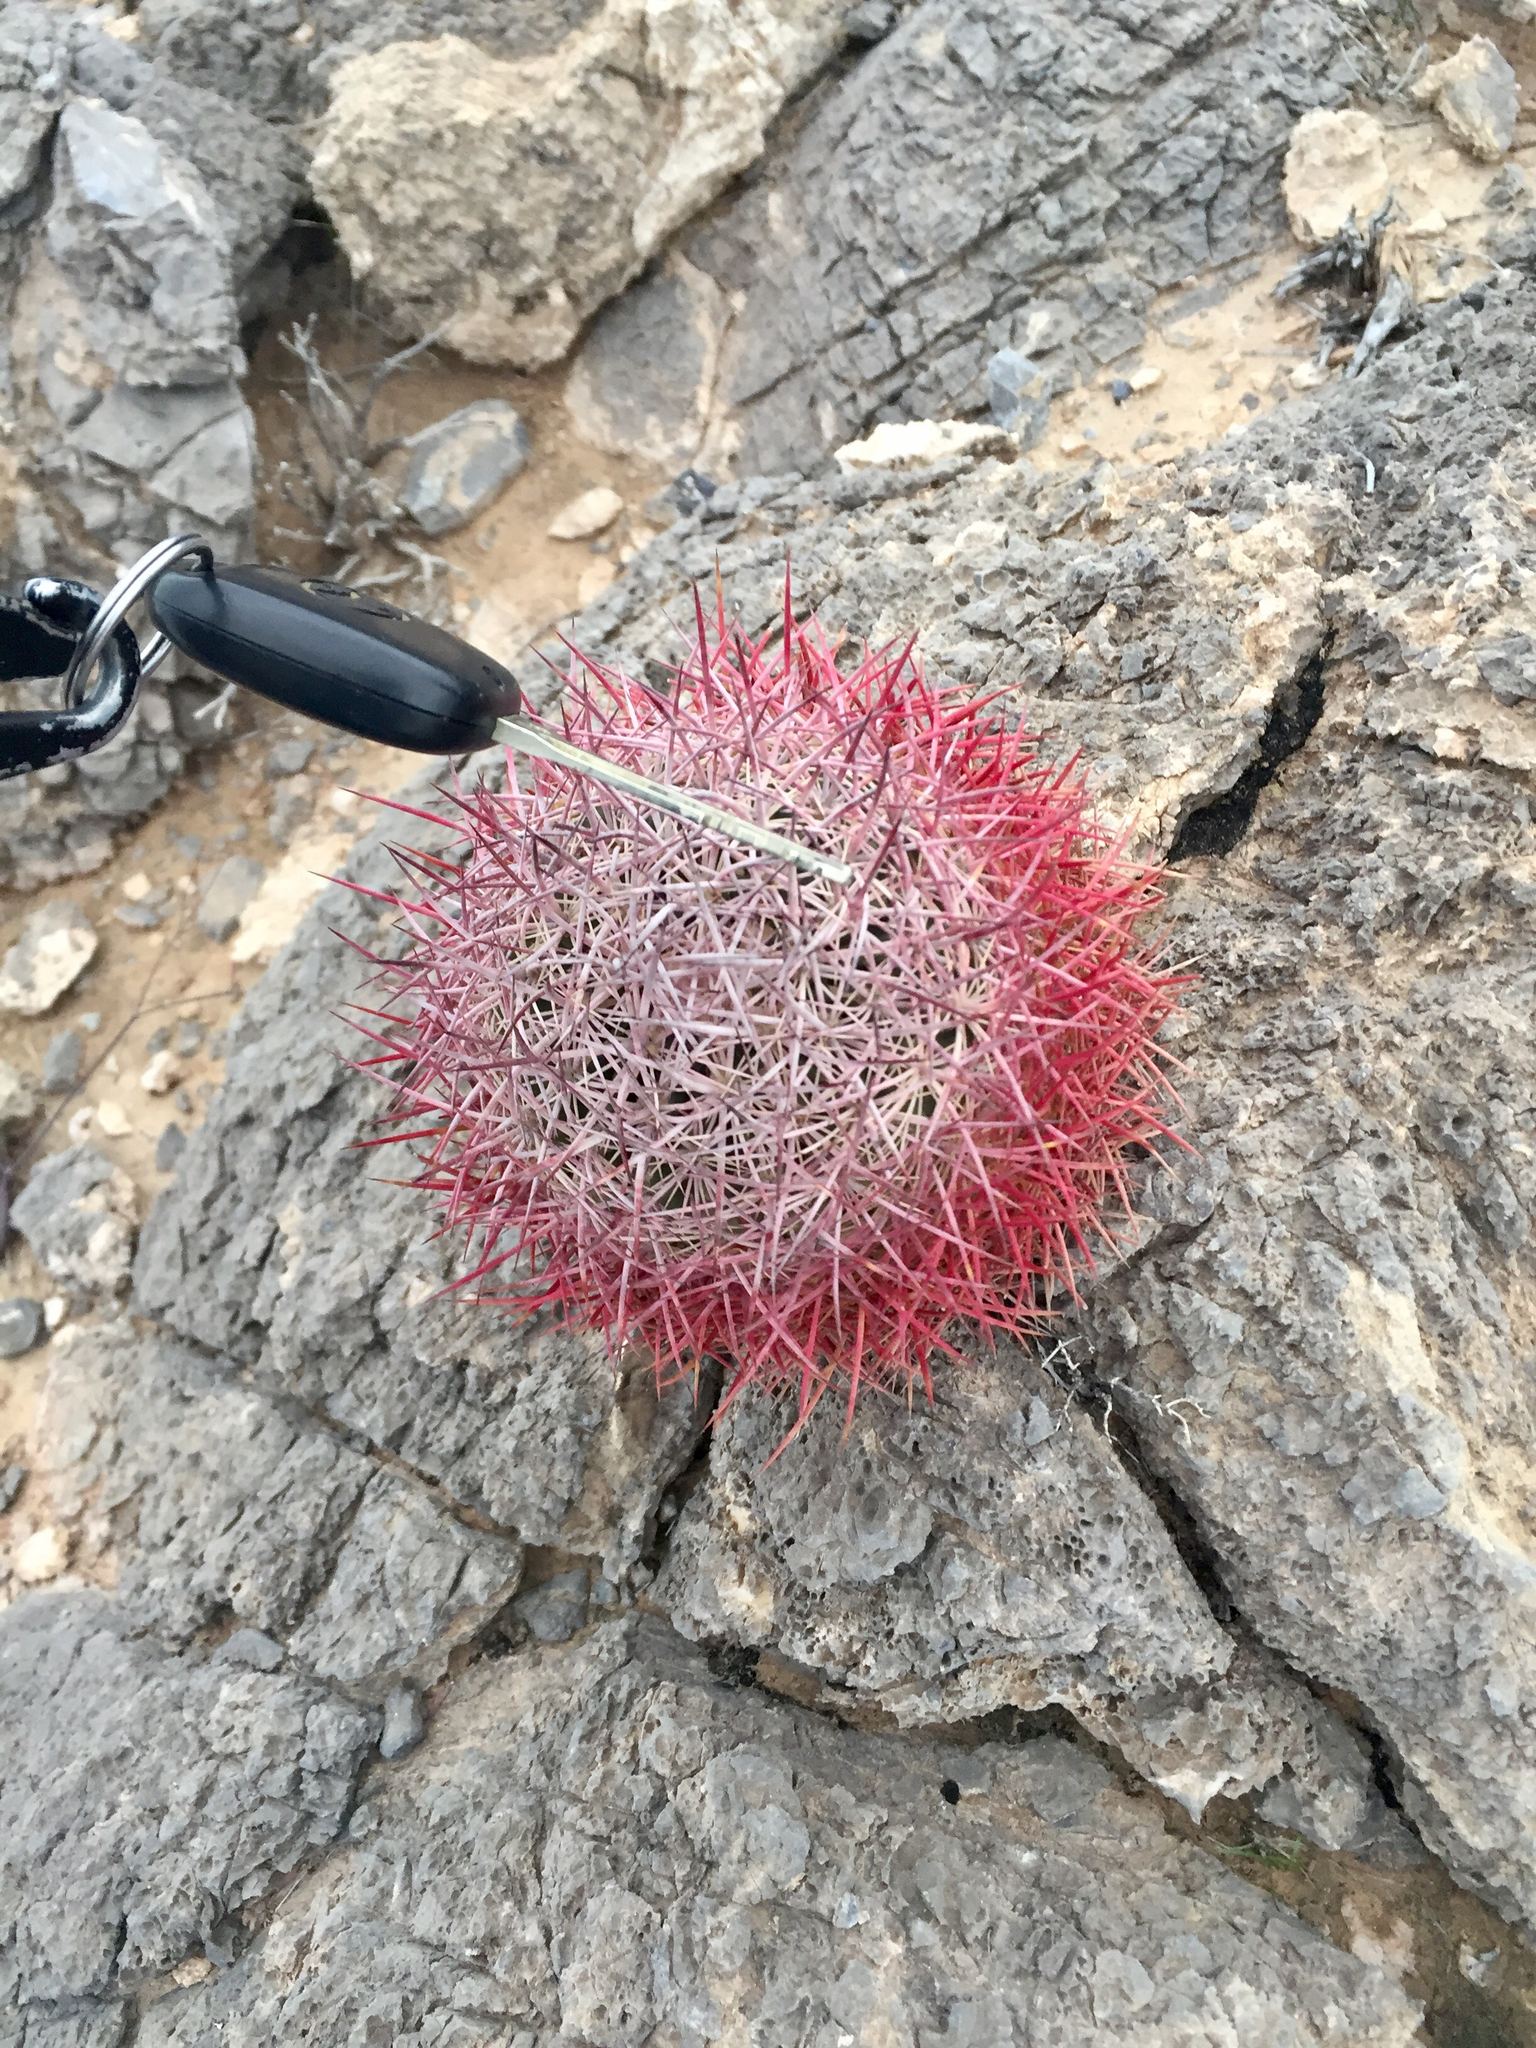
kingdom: Plantae
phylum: Tracheophyta
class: Magnoliopsida
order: Caryophyllales
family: Cactaceae
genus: Sclerocactus
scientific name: Sclerocactus johnsonii
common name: Eight-spine fishhook cactus
